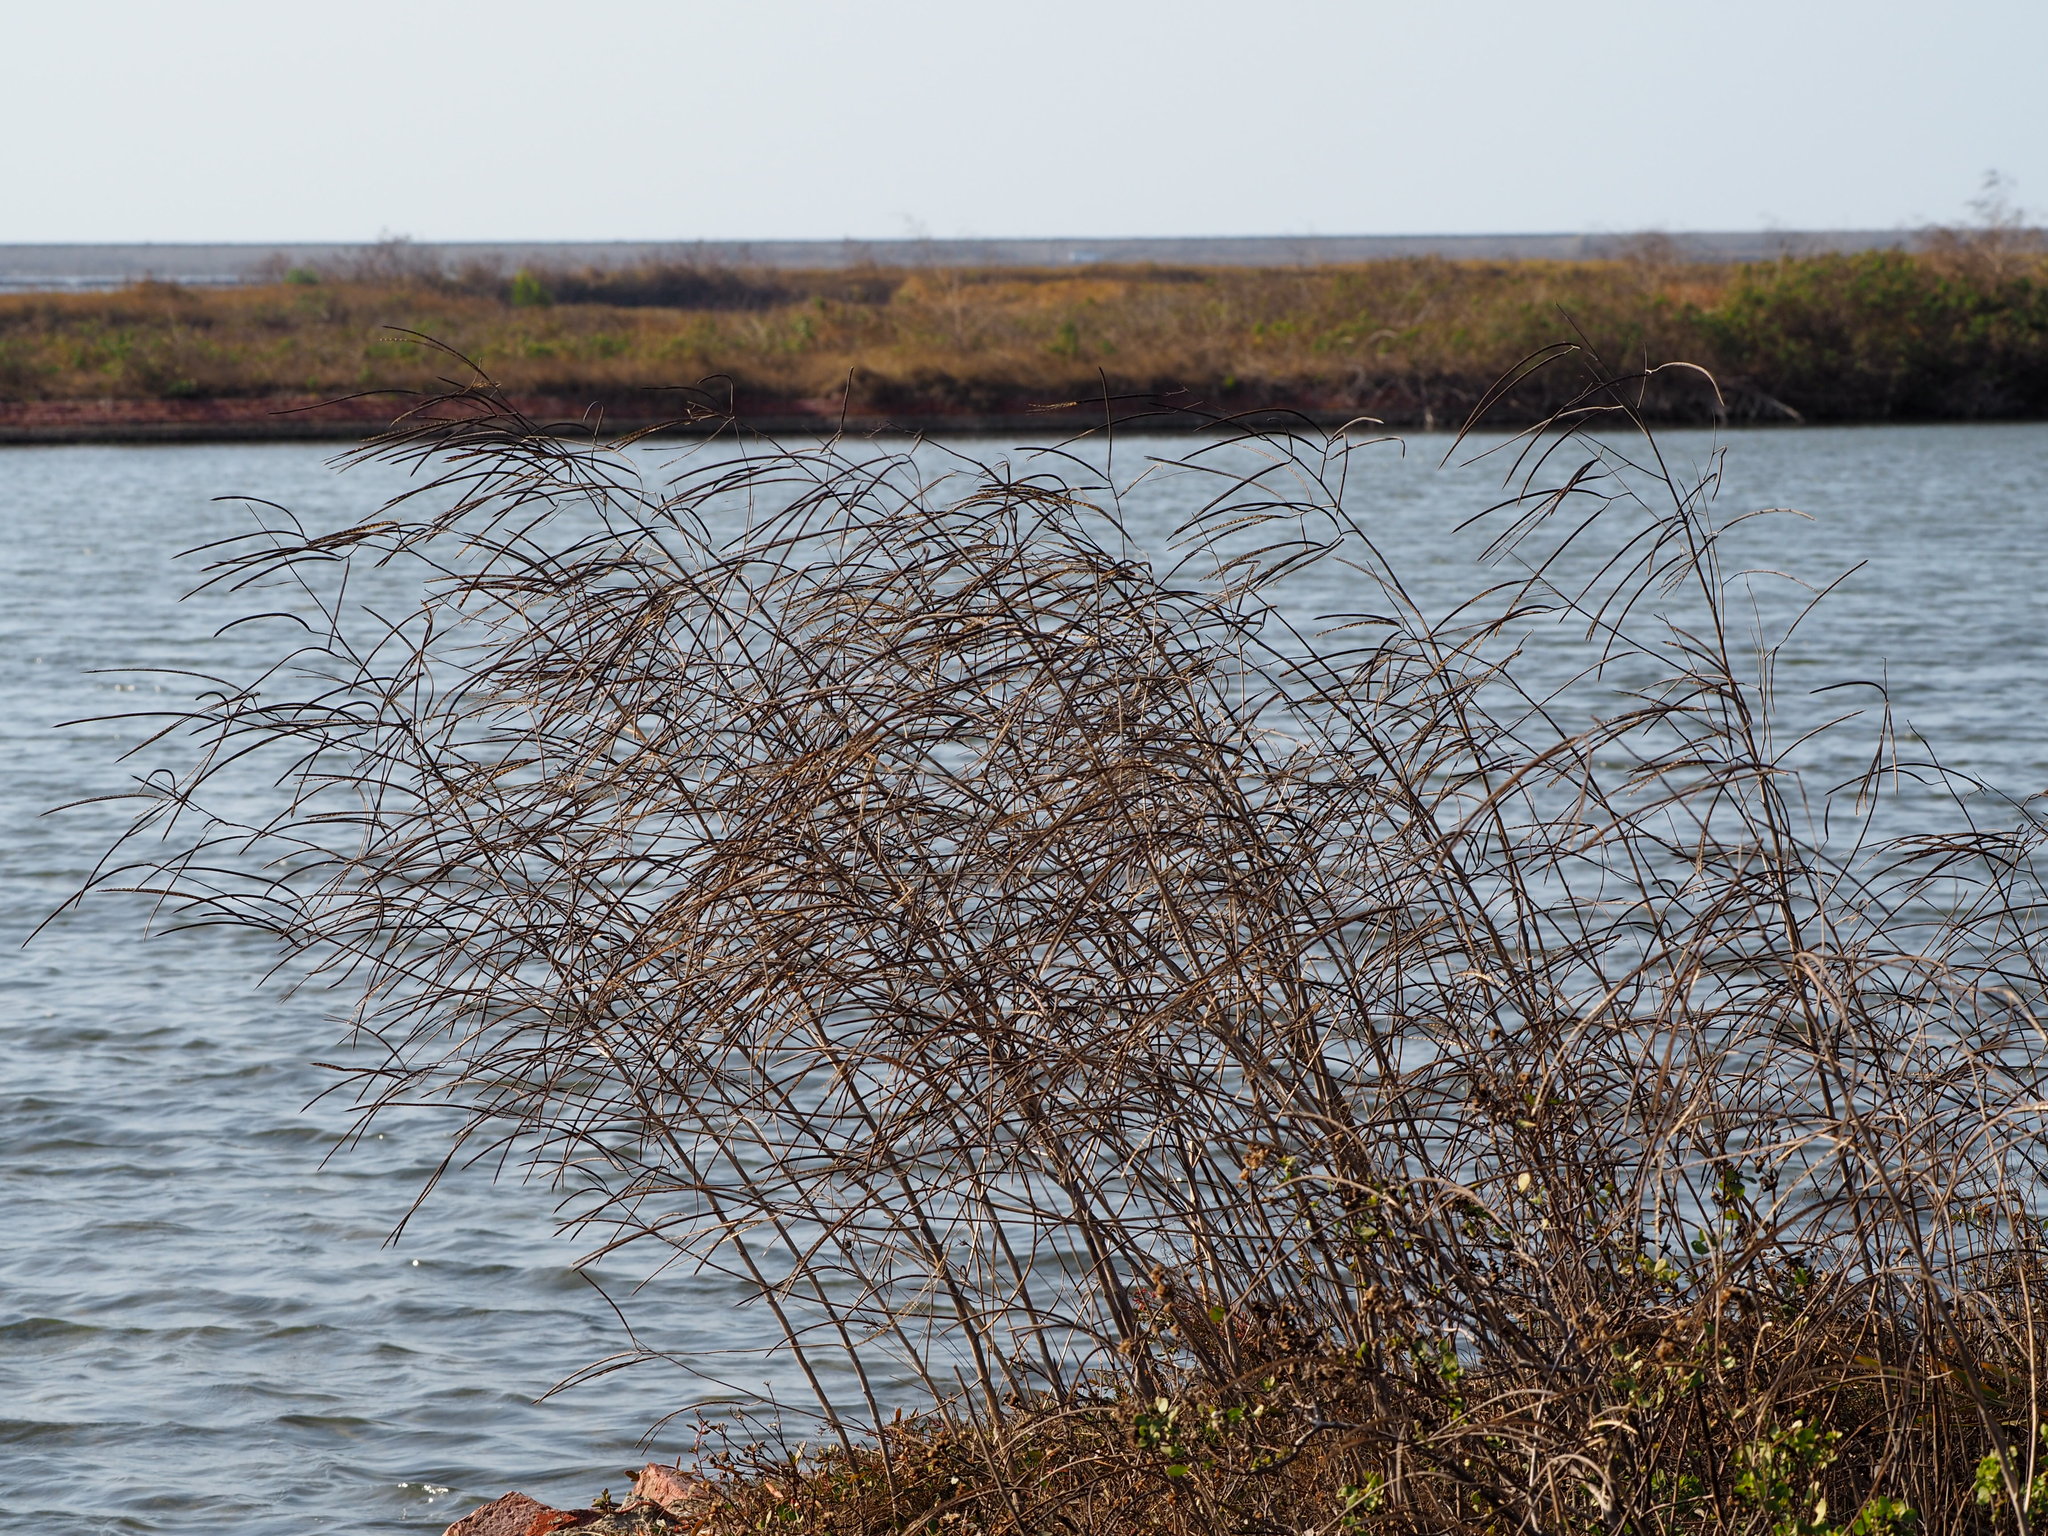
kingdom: Plantae
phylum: Tracheophyta
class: Magnoliopsida
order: Fabales
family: Fabaceae
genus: Sesbania
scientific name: Sesbania cannabina
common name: Canicha
